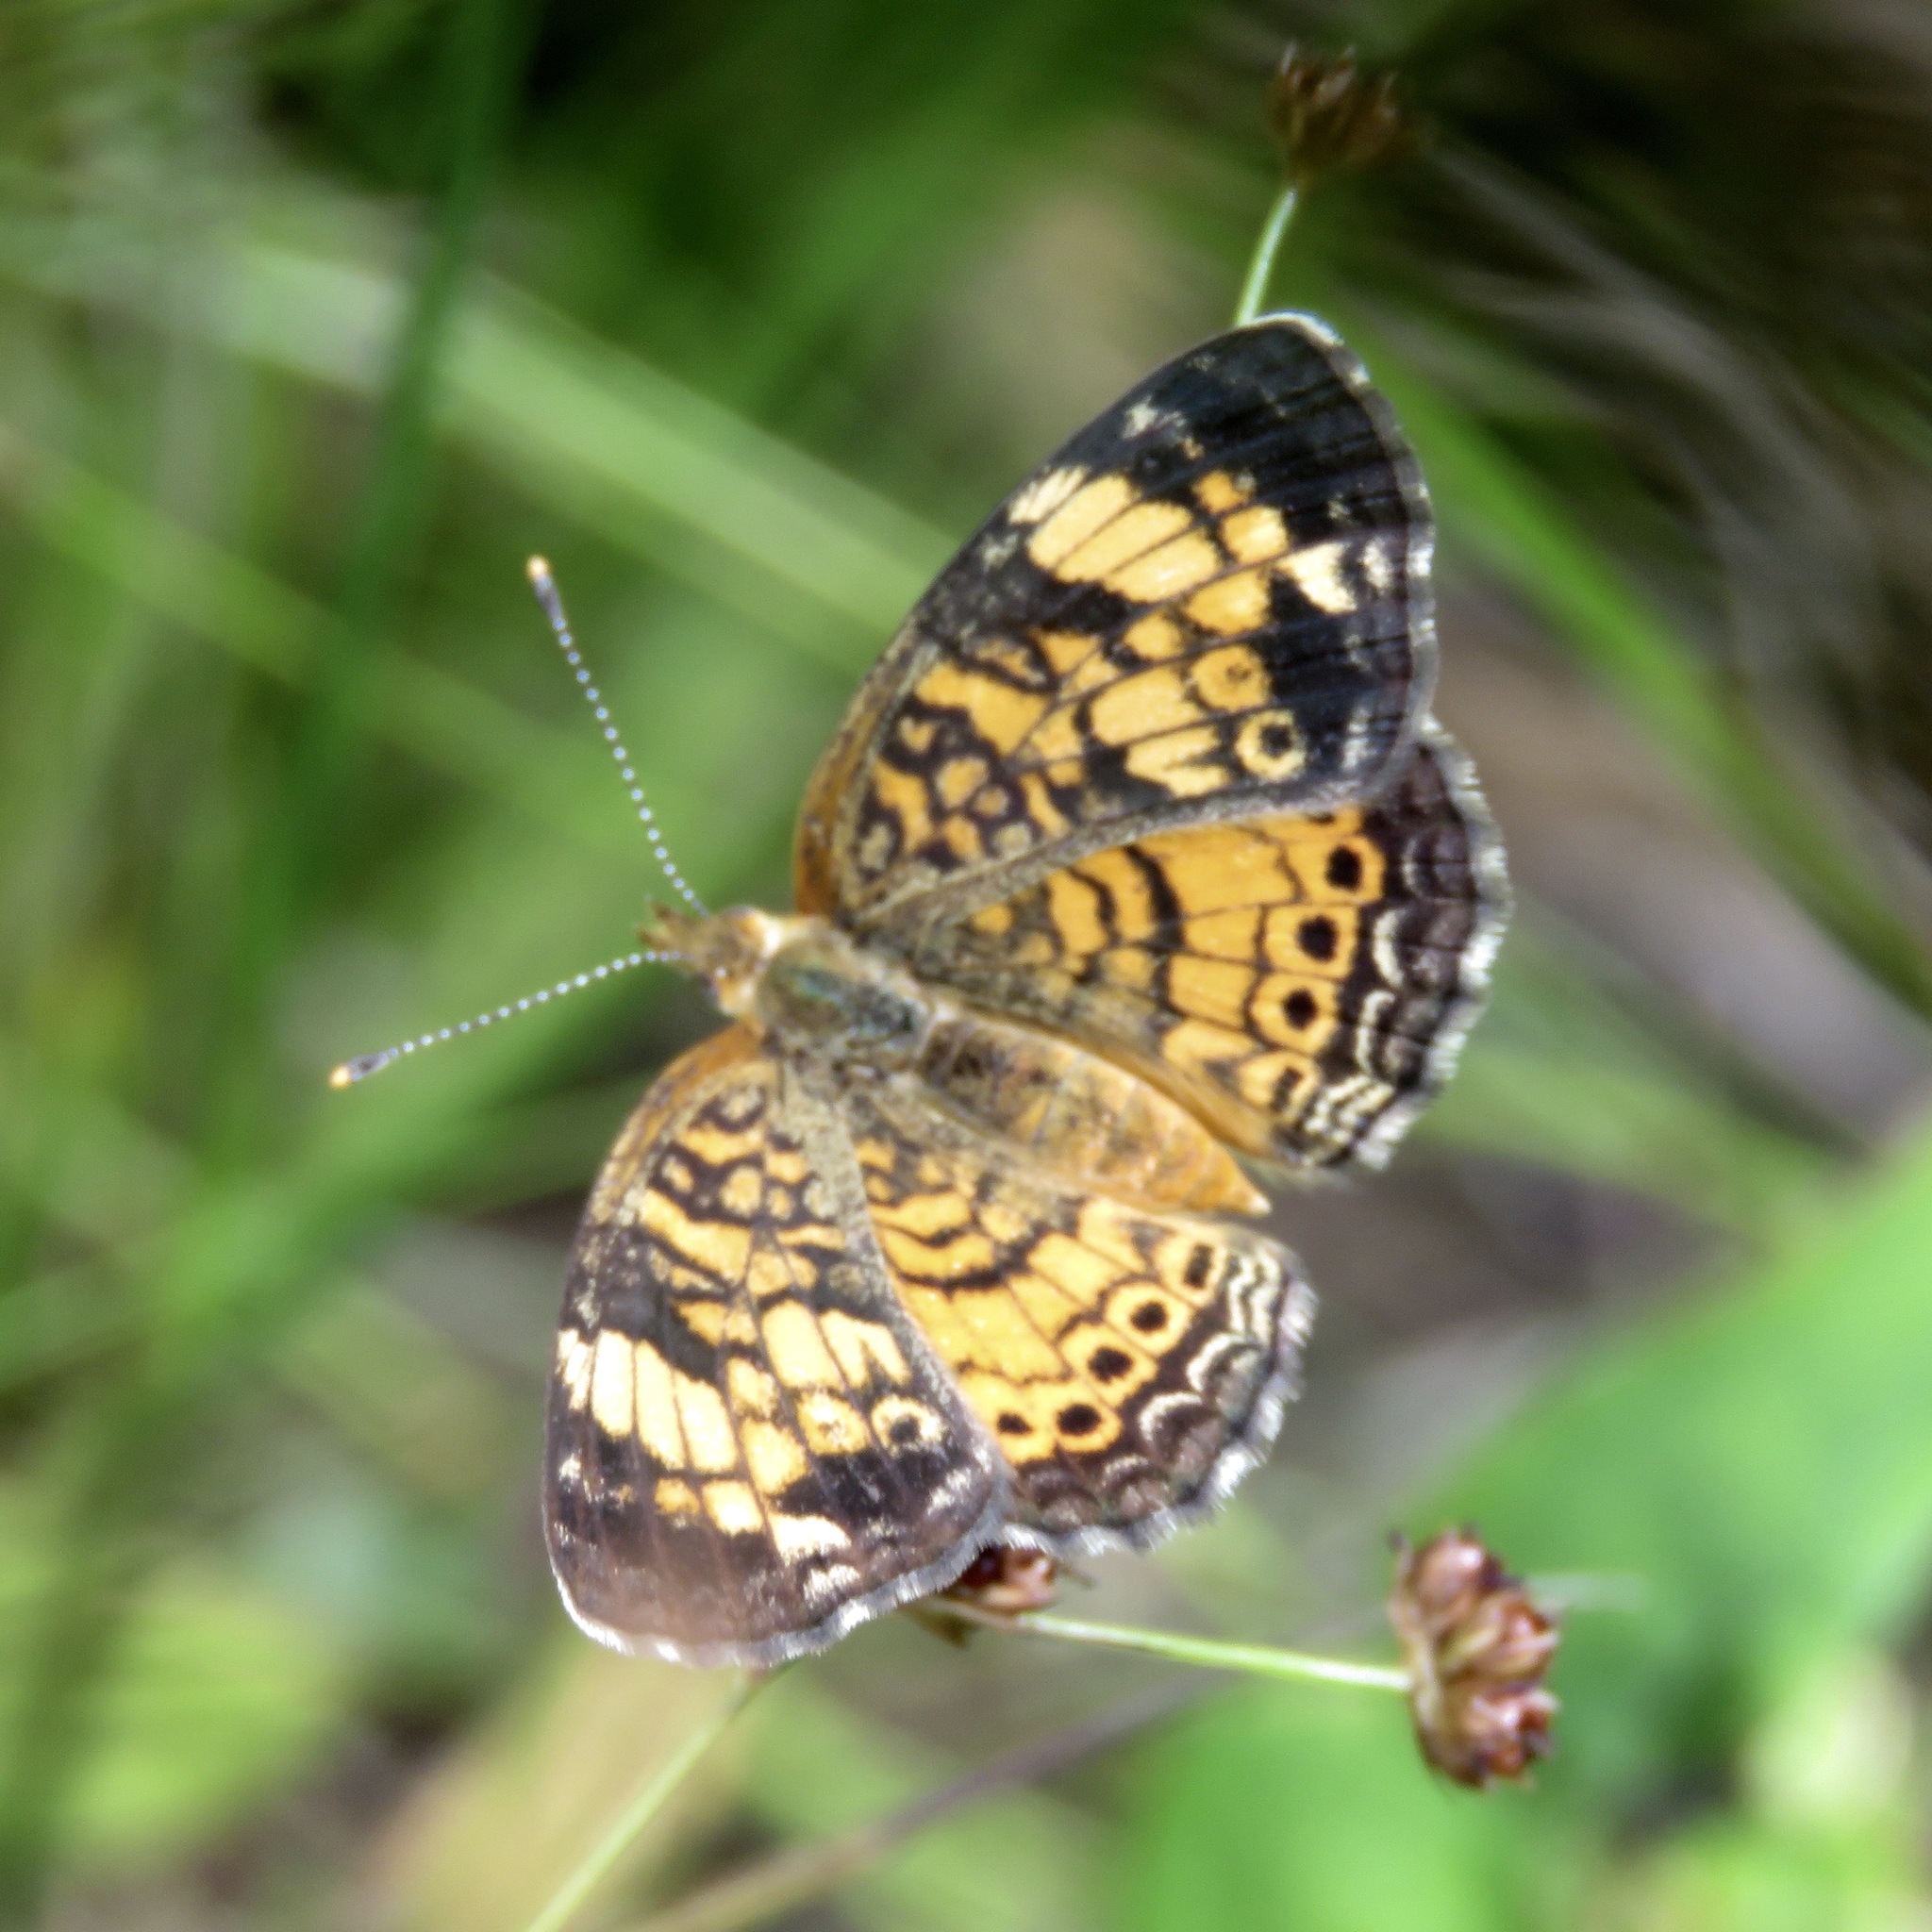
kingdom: Animalia
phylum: Arthropoda
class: Insecta
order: Lepidoptera
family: Nymphalidae
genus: Phyciodes
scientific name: Phyciodes tharos
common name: Pearl crescent
